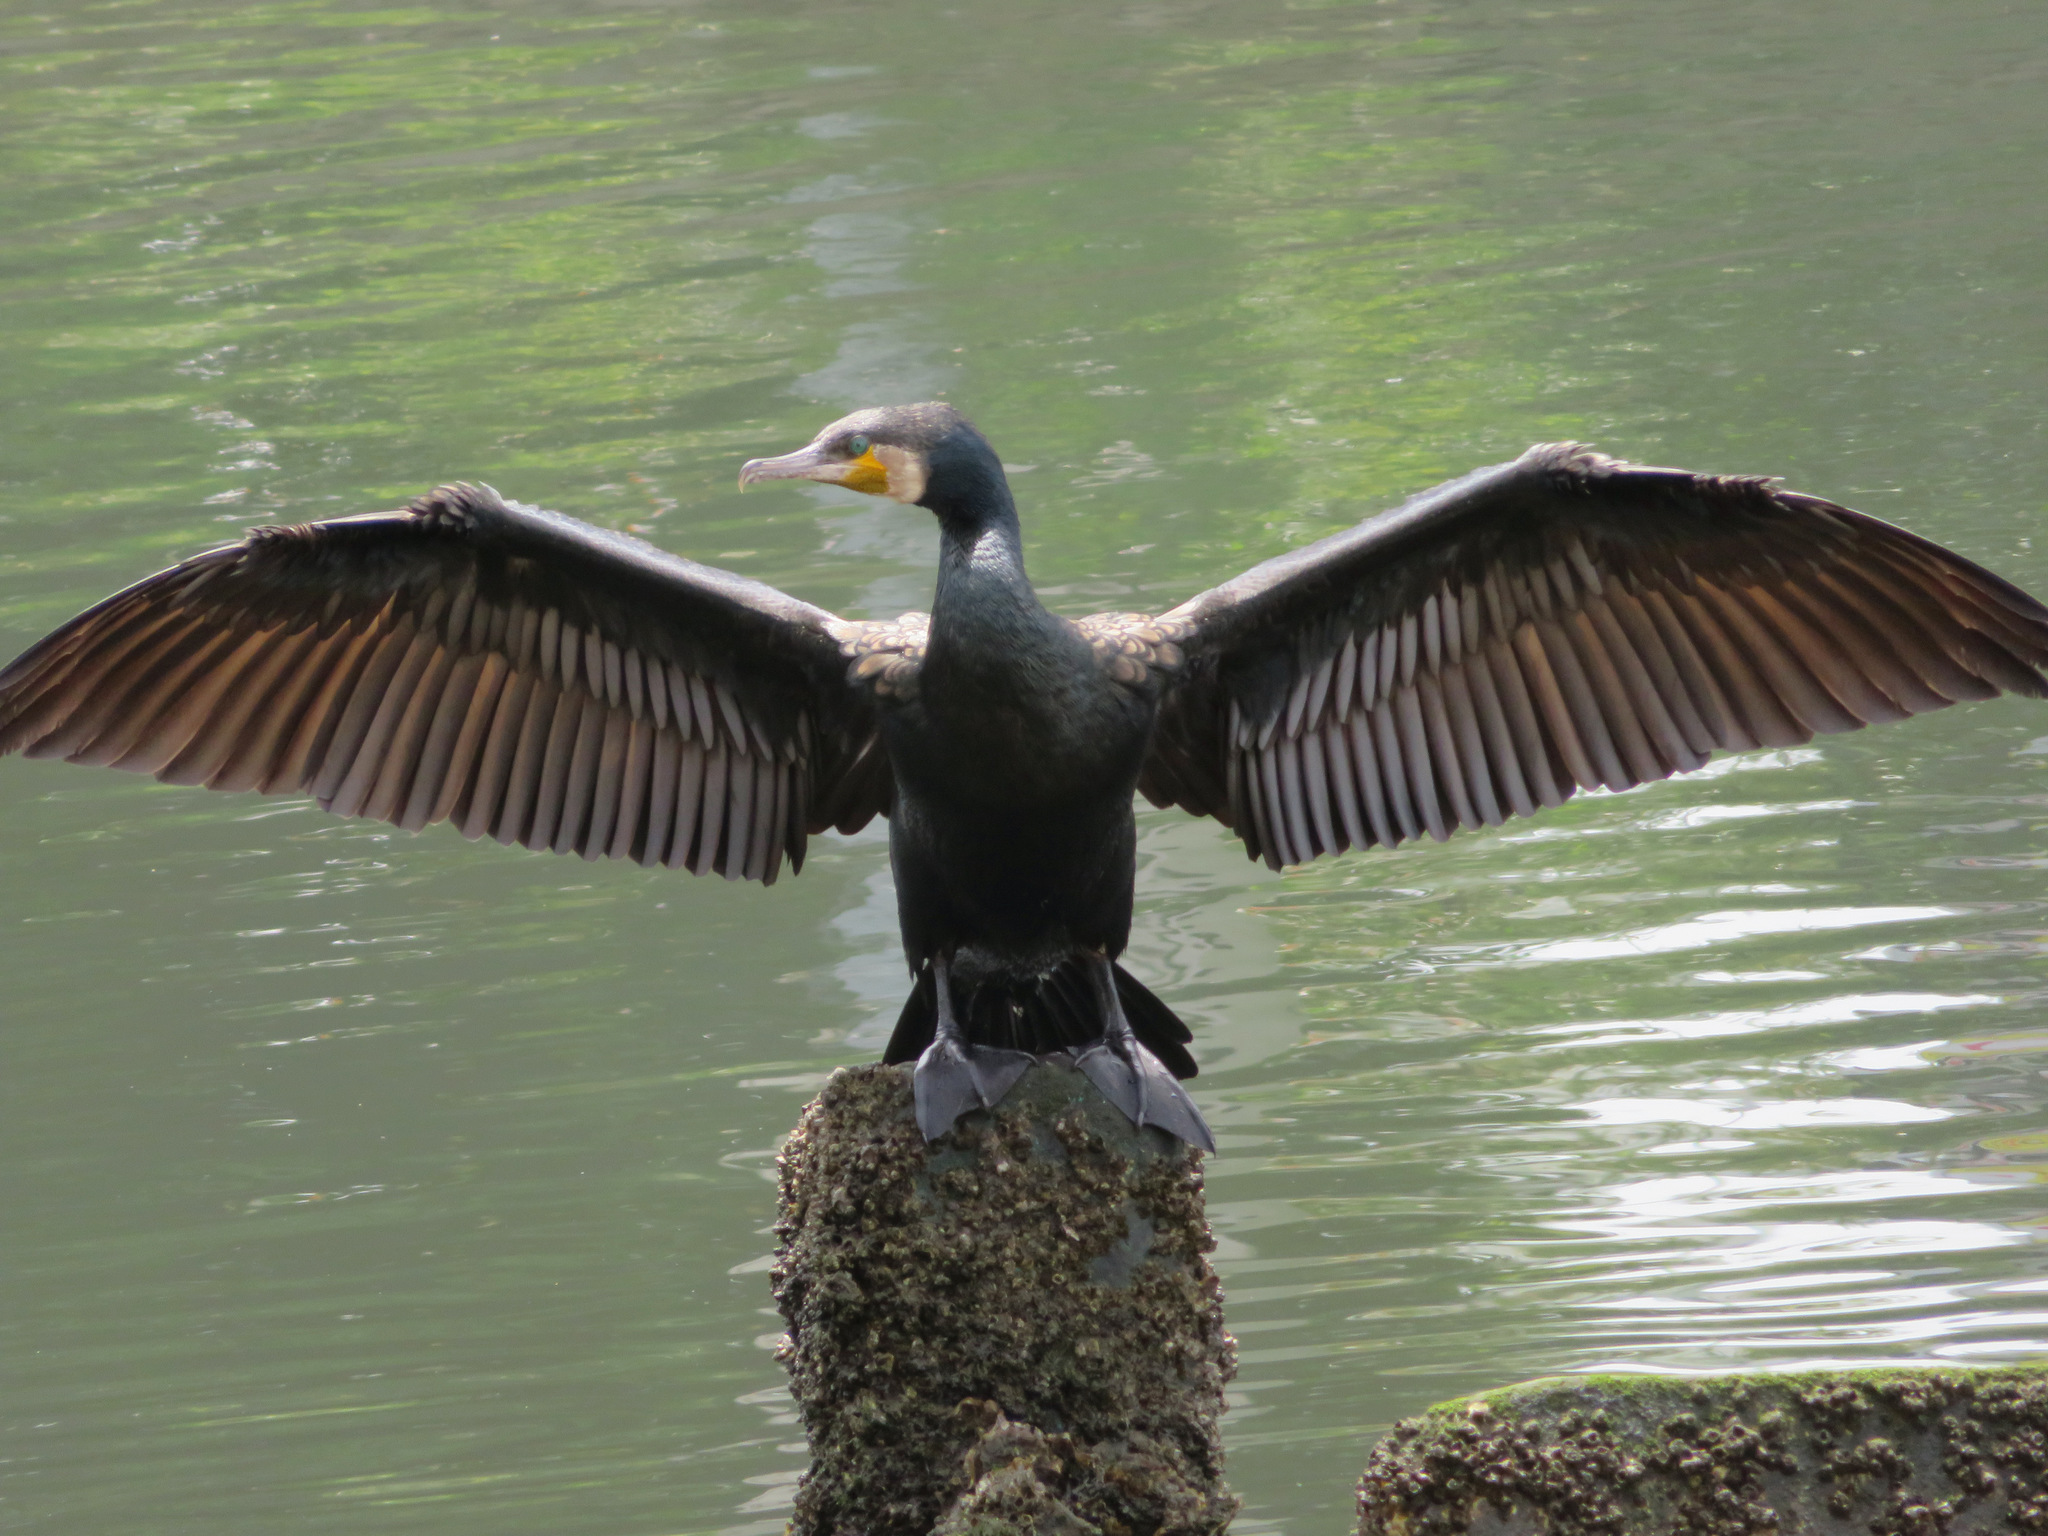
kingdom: Animalia
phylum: Chordata
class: Aves
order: Suliformes
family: Phalacrocoracidae
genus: Phalacrocorax
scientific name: Phalacrocorax carbo
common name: Great cormorant
